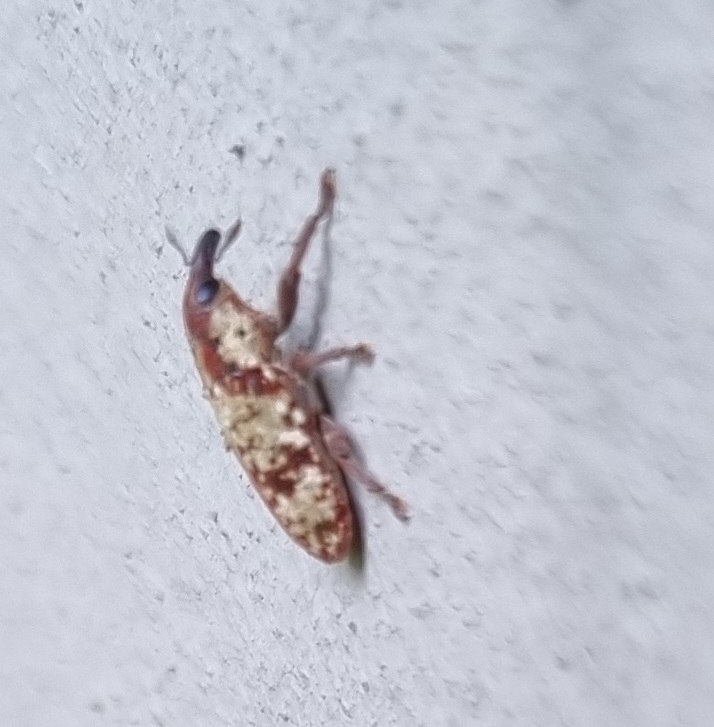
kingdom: Animalia
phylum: Arthropoda
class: Insecta
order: Coleoptera
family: Curculionidae
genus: Hypolixus
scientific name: Hypolixus
